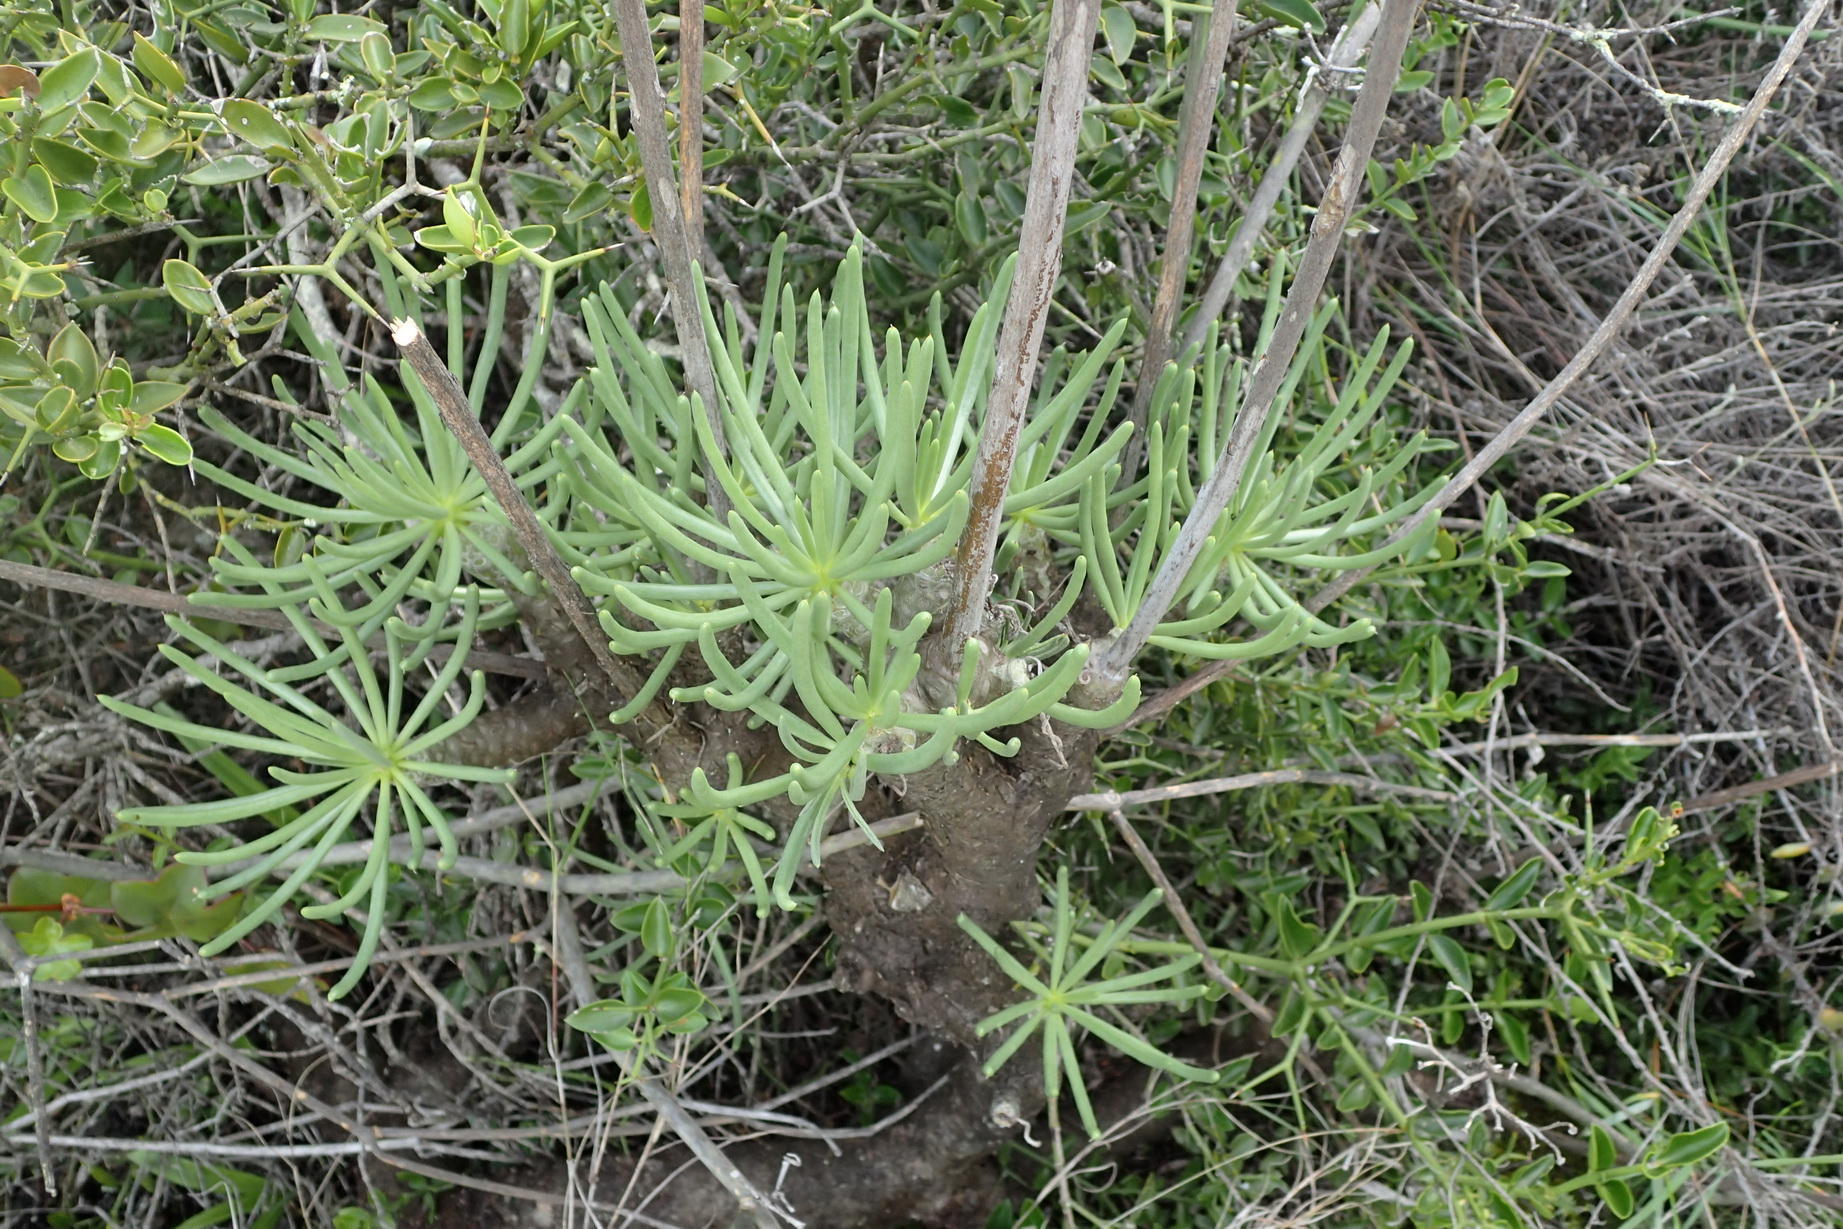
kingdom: Plantae
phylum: Tracheophyta
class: Magnoliopsida
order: Saxifragales
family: Crassulaceae
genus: Tylecodon
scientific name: Tylecodon cacaliodes
